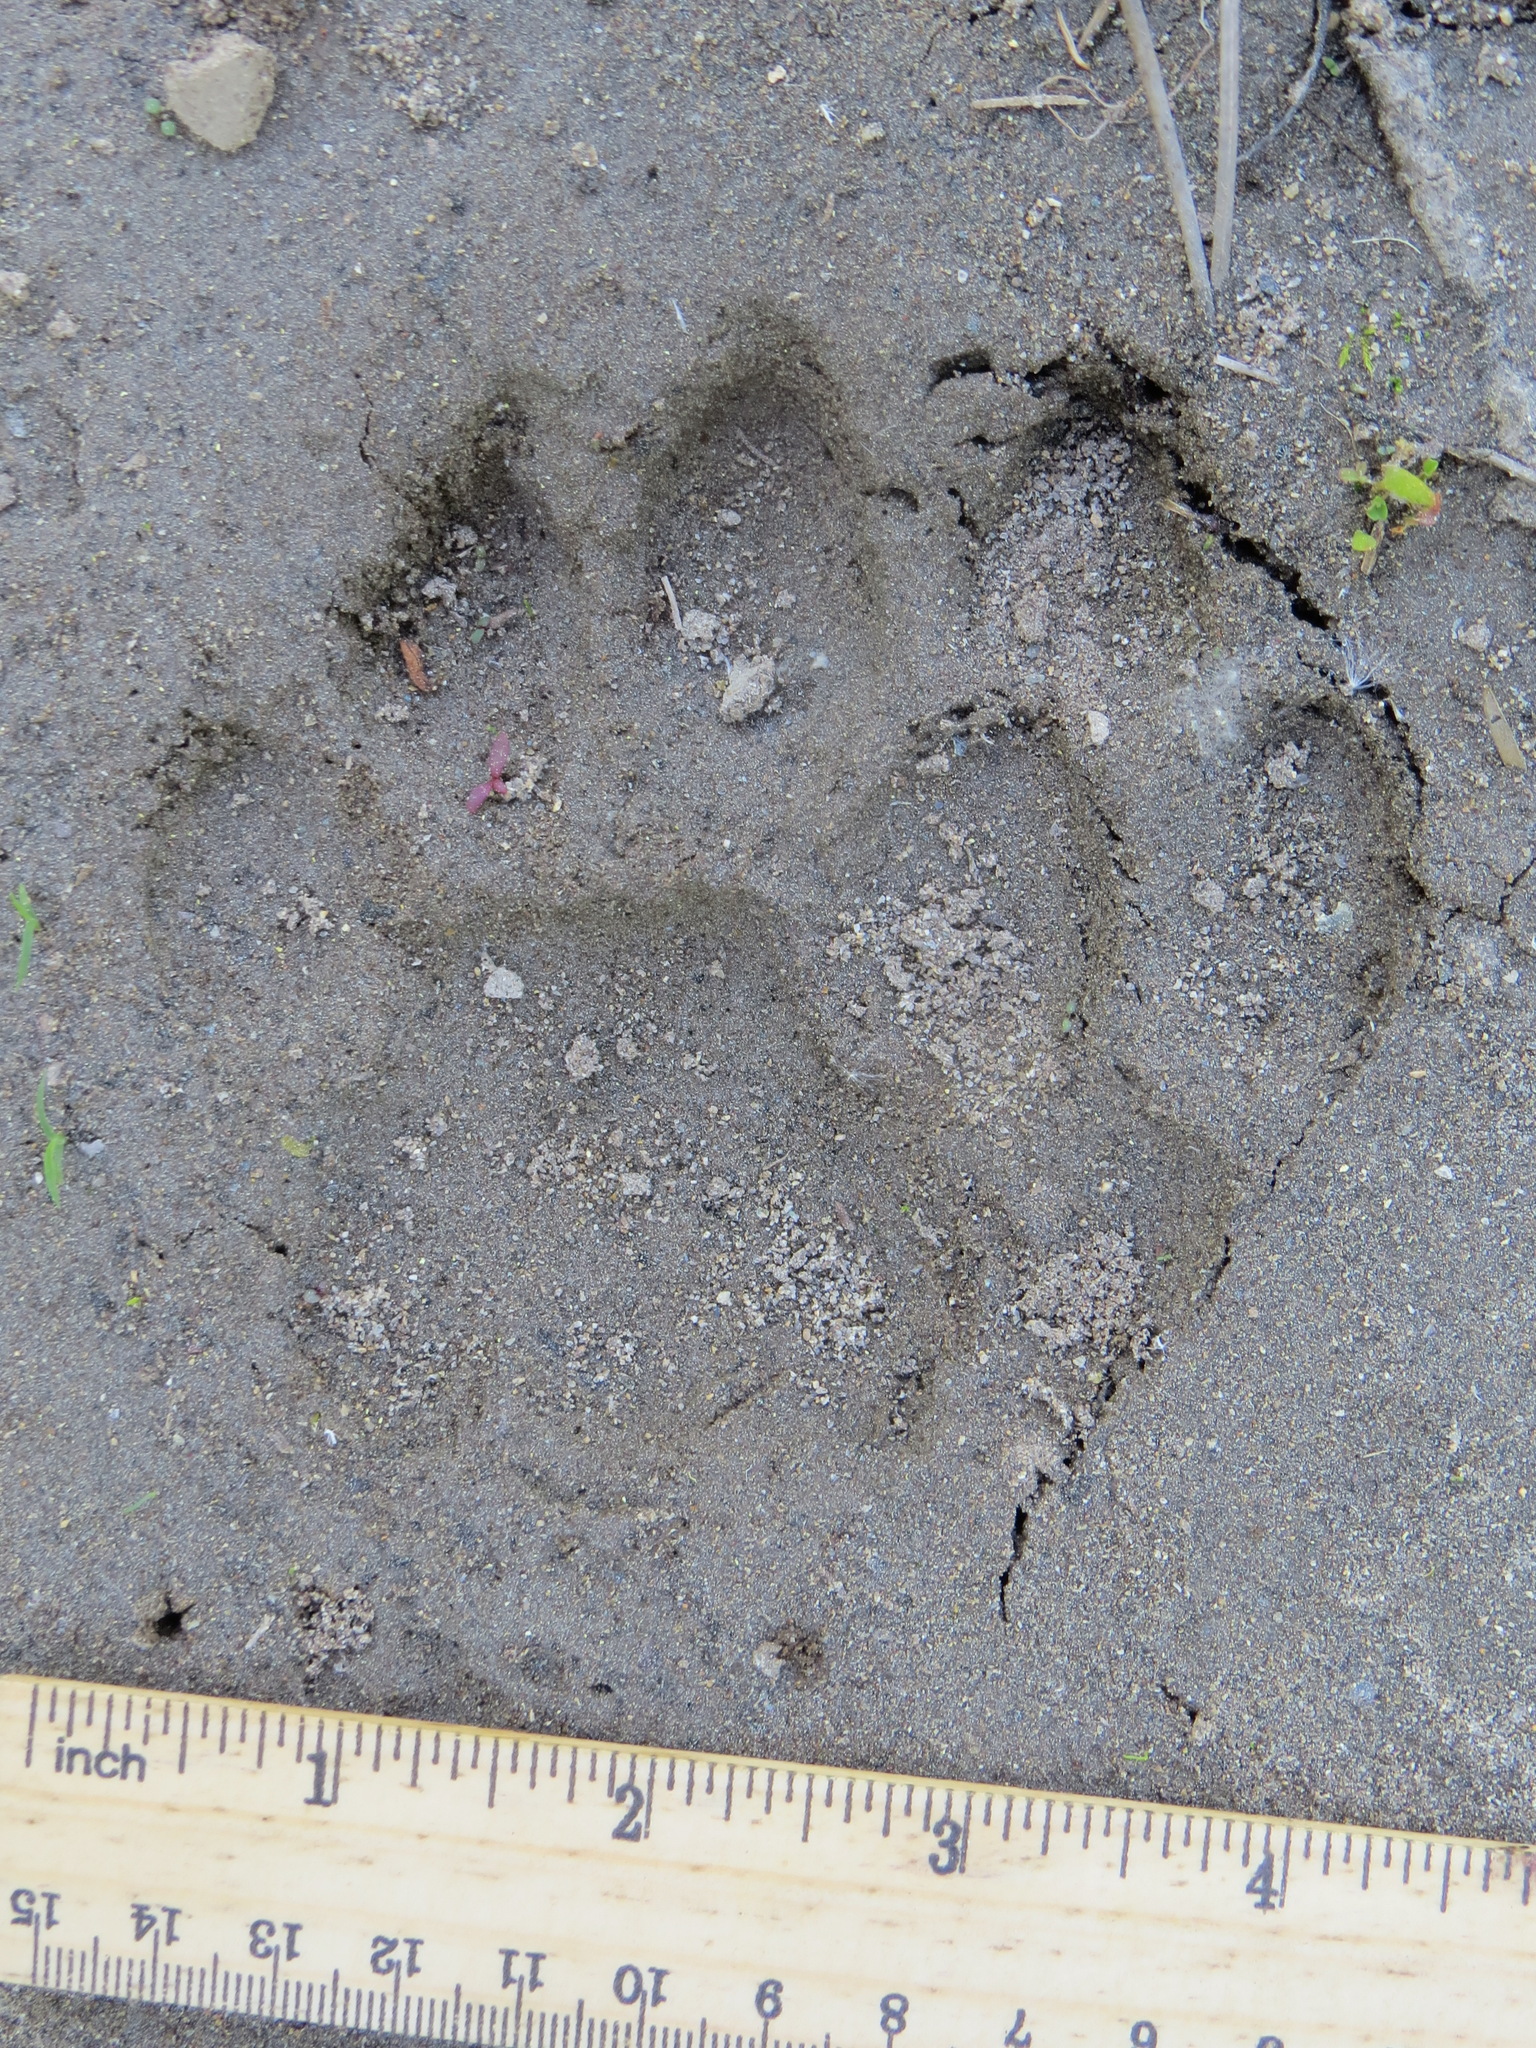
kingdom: Animalia
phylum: Chordata
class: Mammalia
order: Carnivora
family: Felidae
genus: Puma
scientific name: Puma concolor
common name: Puma
